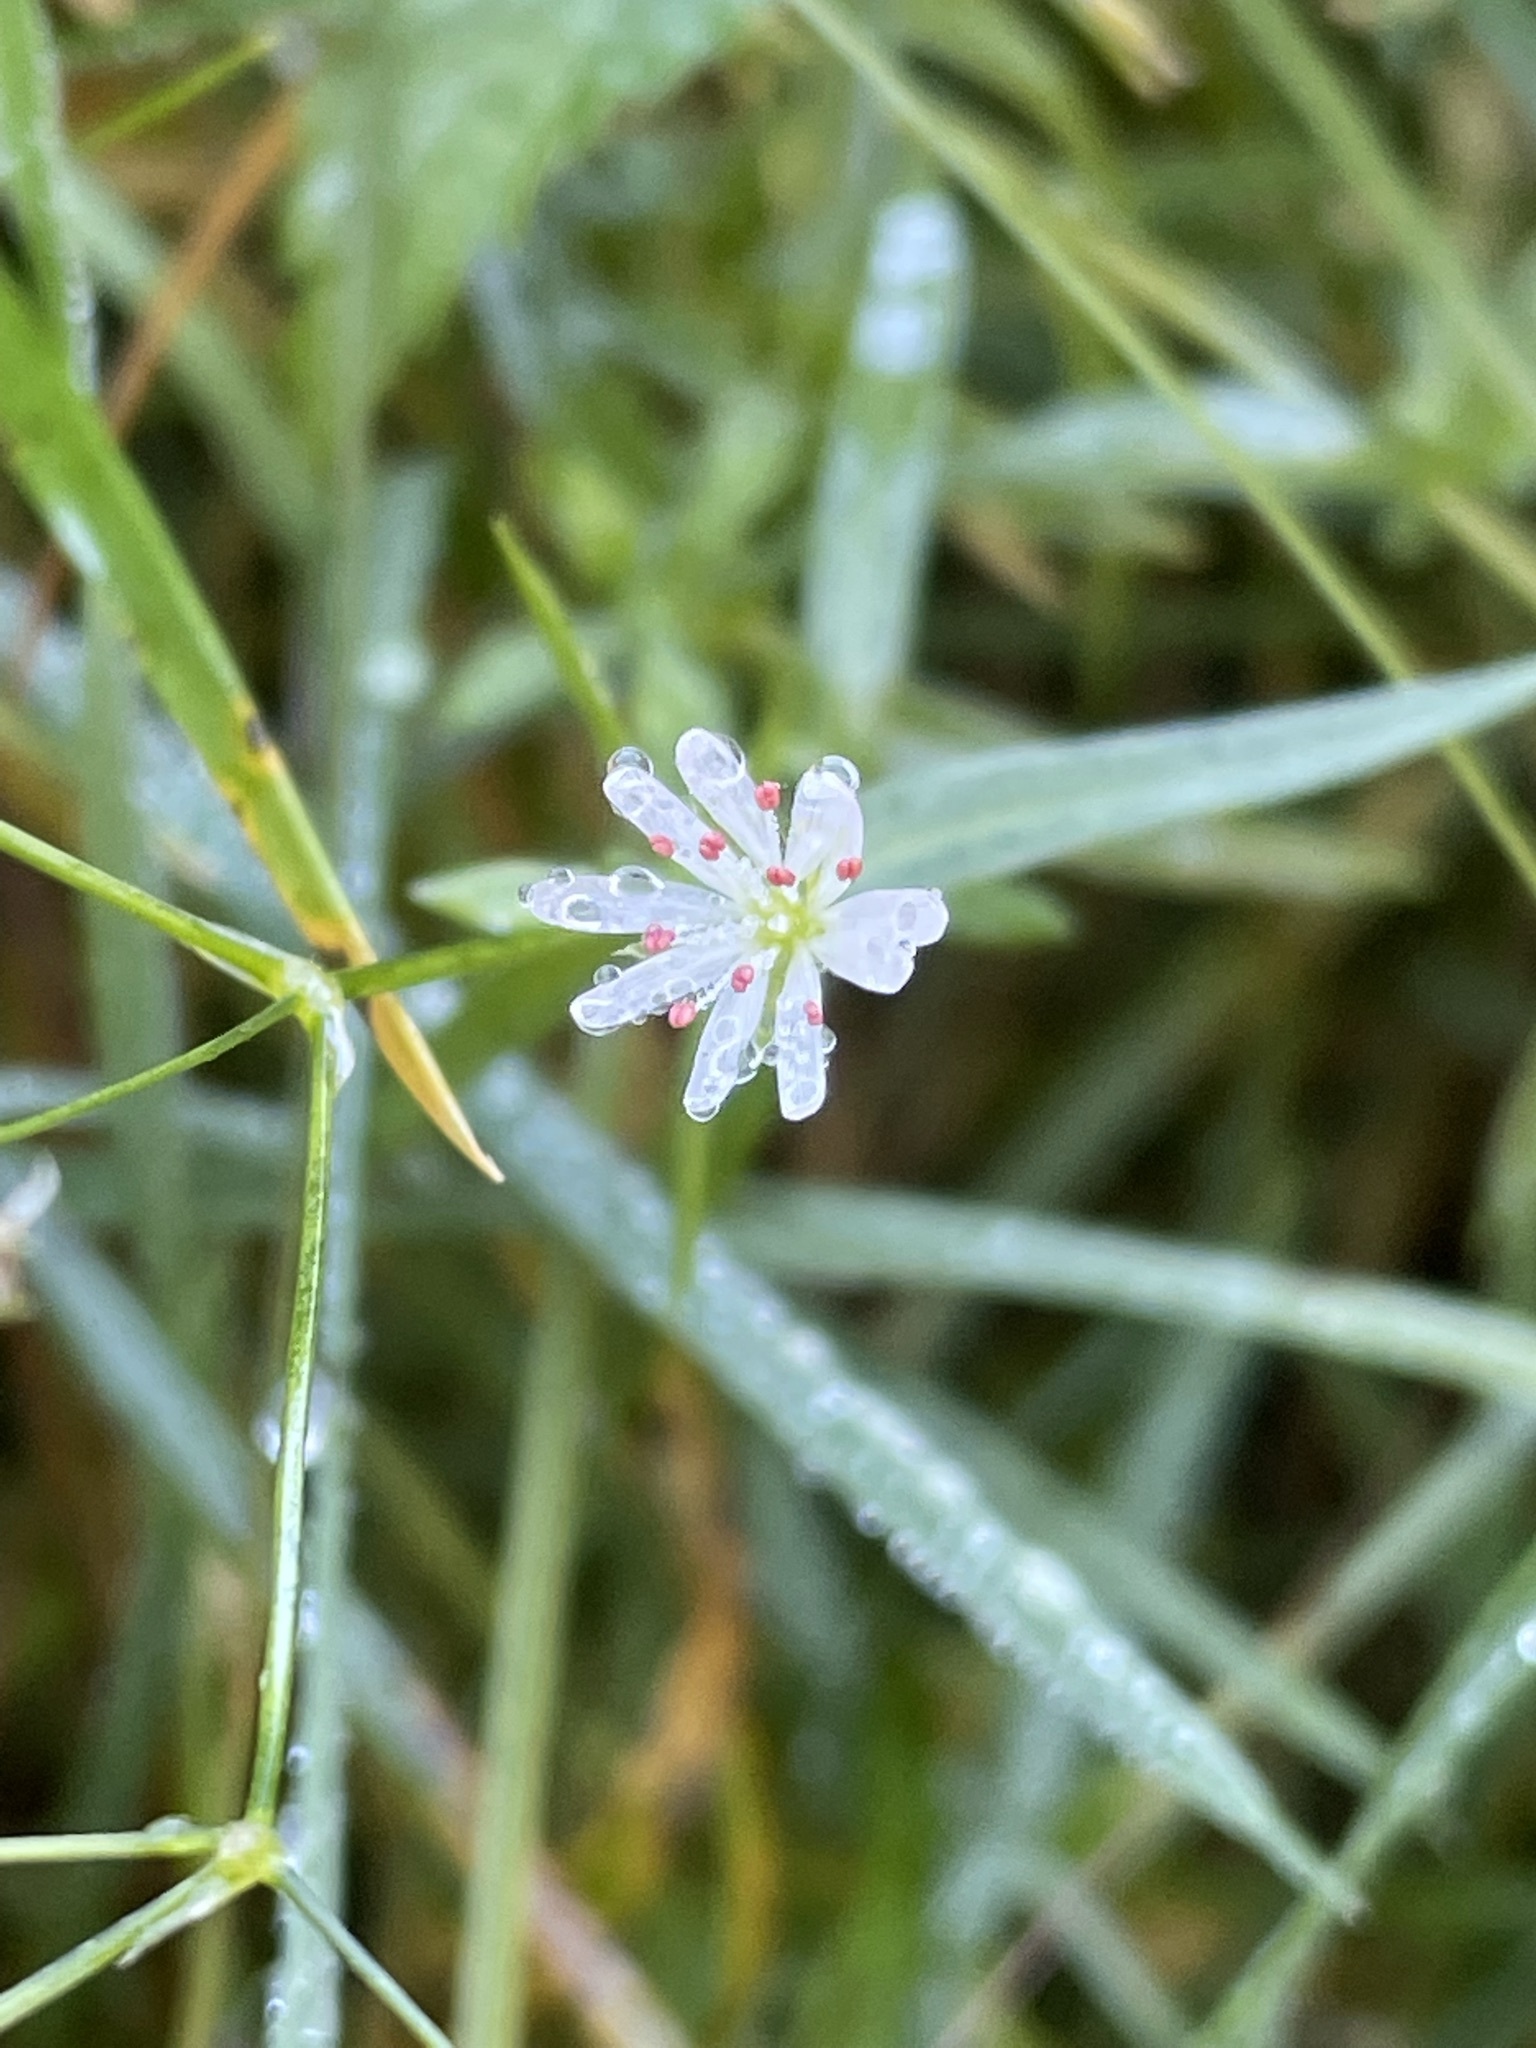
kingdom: Plantae
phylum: Tracheophyta
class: Magnoliopsida
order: Caryophyllales
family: Caryophyllaceae
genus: Stellaria
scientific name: Stellaria graminea
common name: Grass-like starwort
